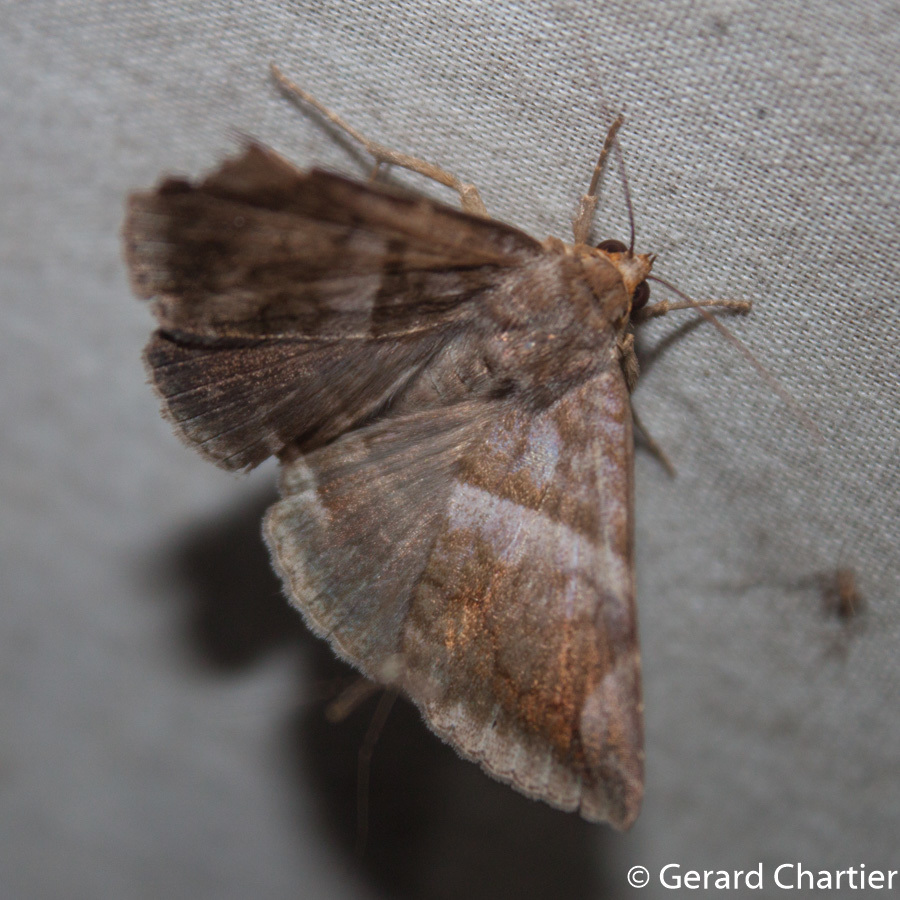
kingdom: Animalia
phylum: Arthropoda
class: Insecta
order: Lepidoptera
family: Erebidae
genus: Buzara
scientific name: Buzara onelia
